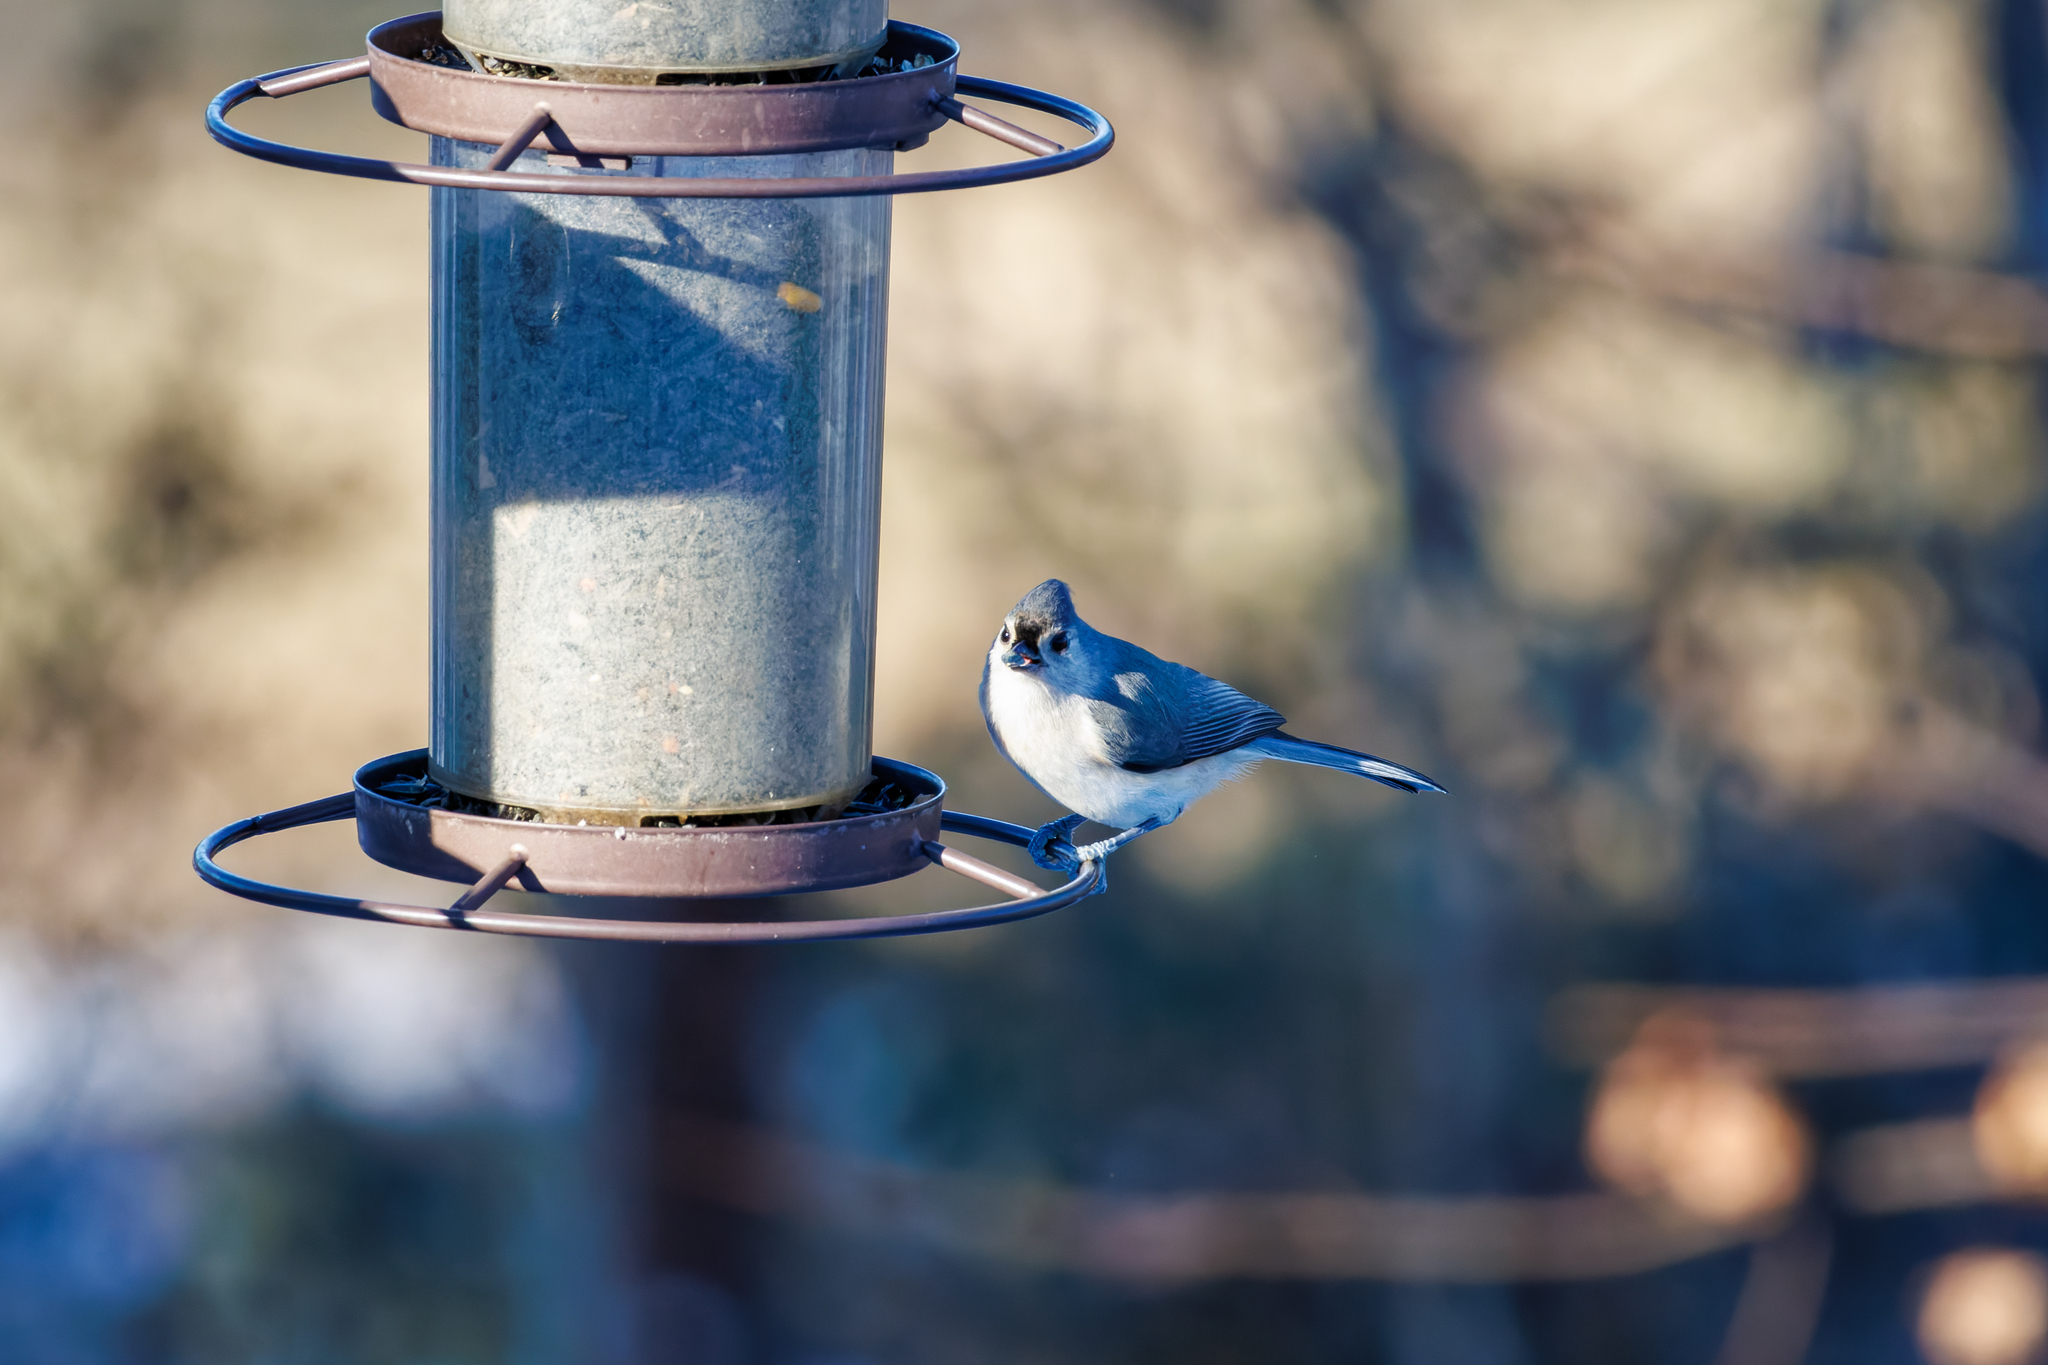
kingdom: Animalia
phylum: Chordata
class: Aves
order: Passeriformes
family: Paridae
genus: Baeolophus
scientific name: Baeolophus bicolor
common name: Tufted titmouse
